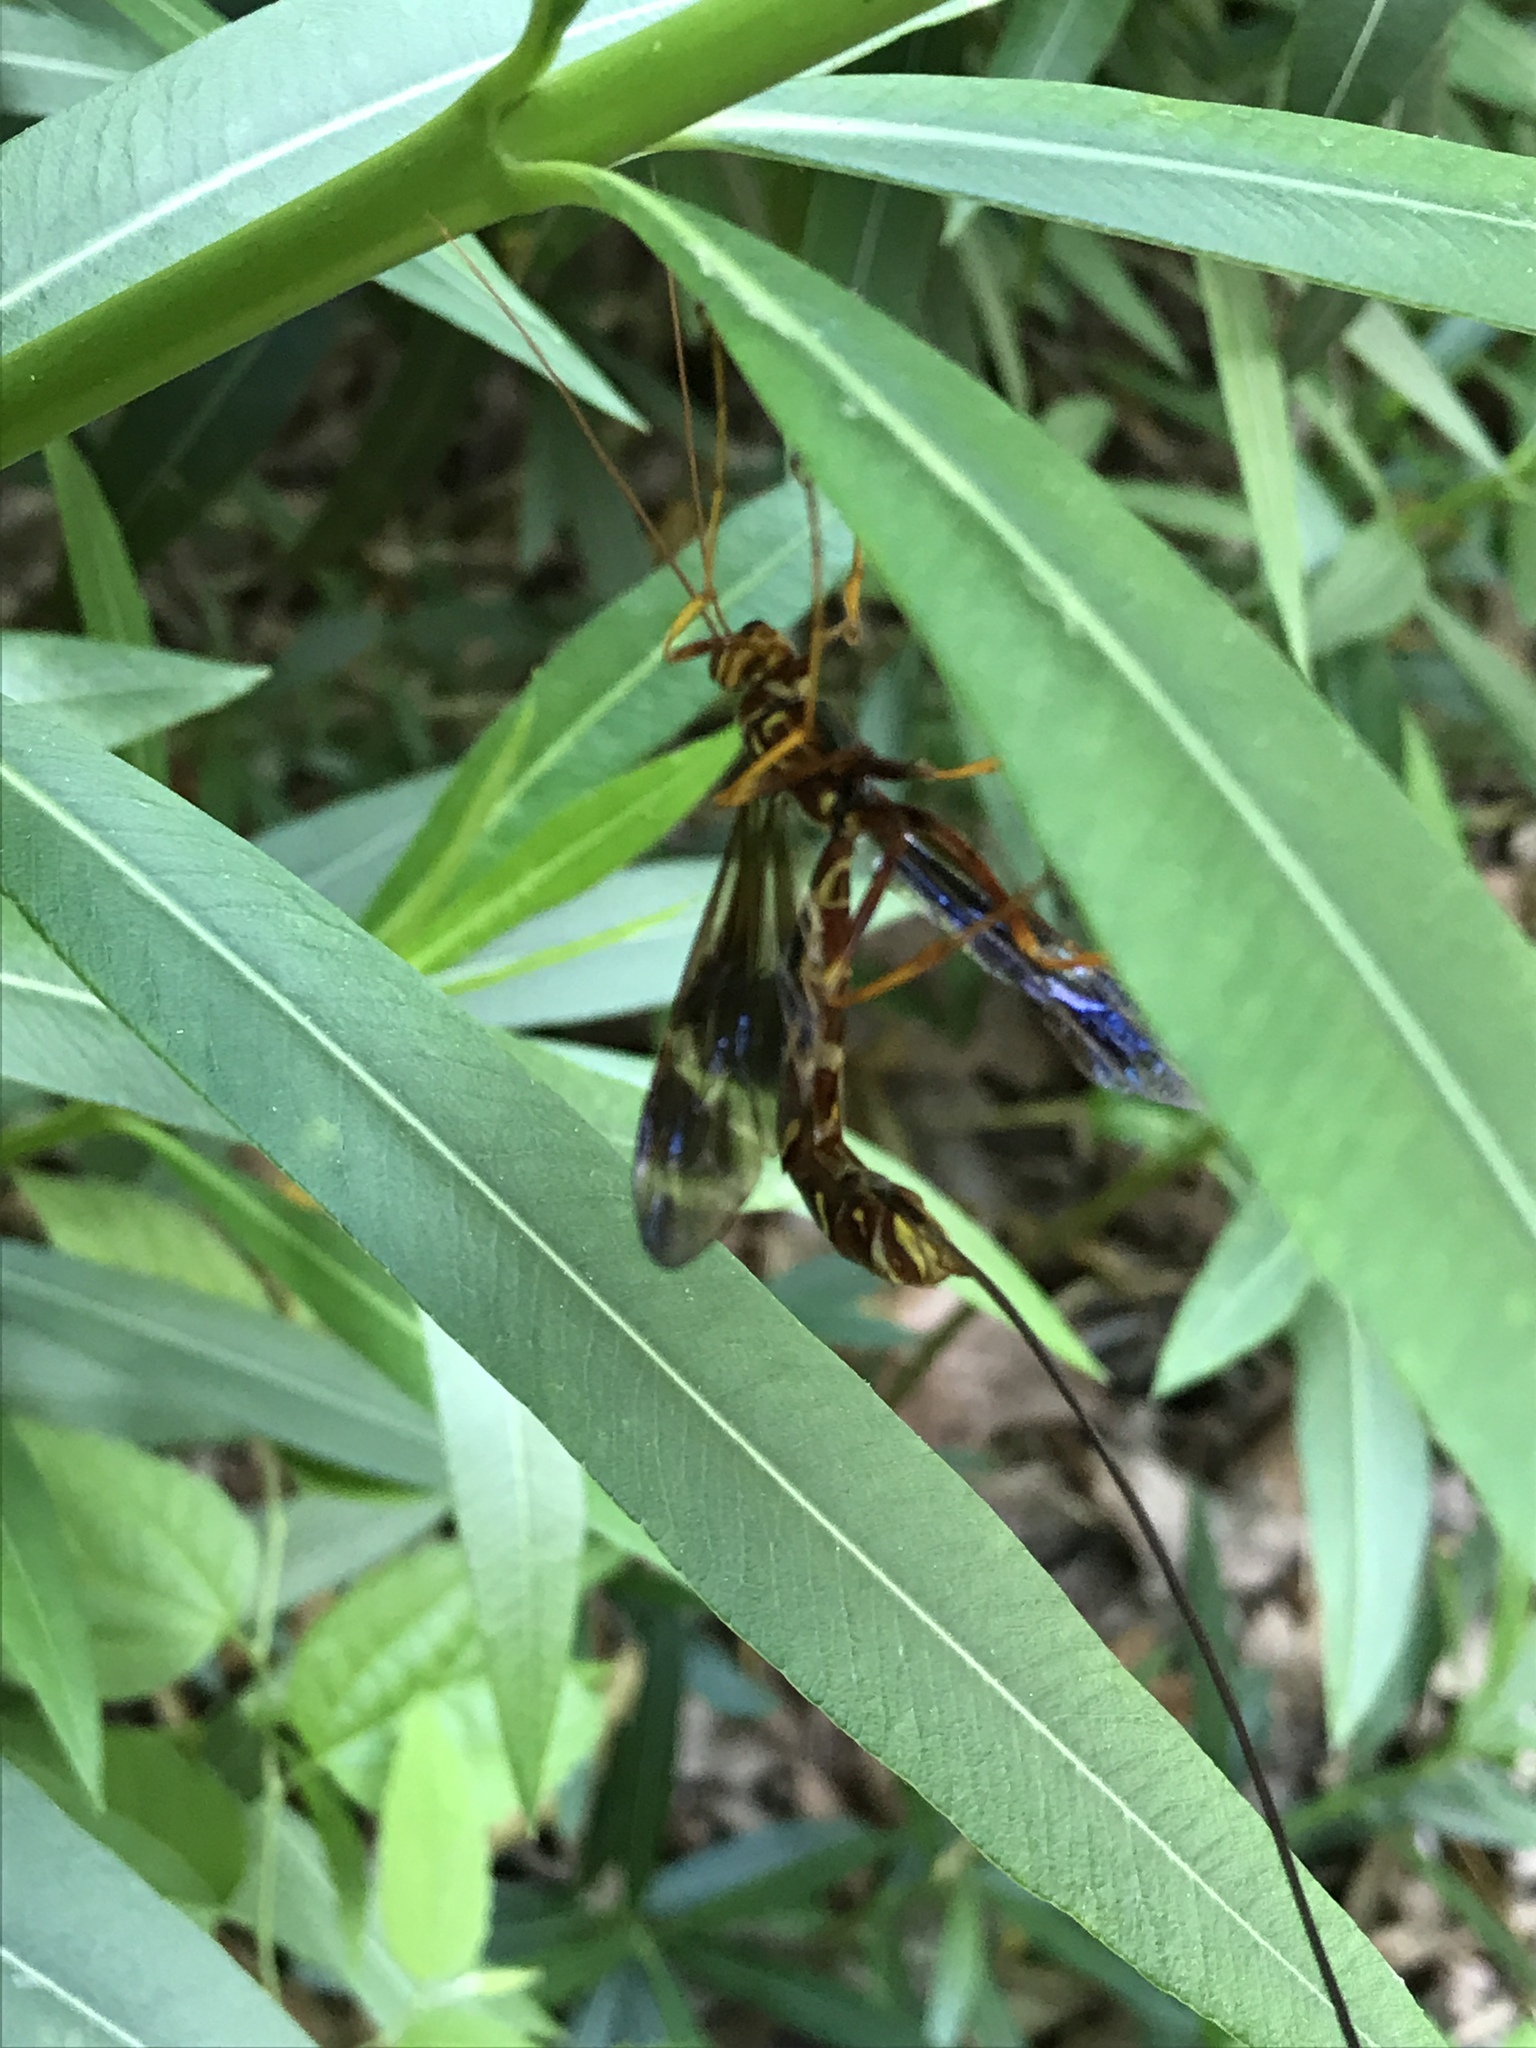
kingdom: Animalia
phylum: Arthropoda
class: Insecta
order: Hymenoptera
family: Ichneumonidae
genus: Megarhyssa
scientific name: Megarhyssa macrura
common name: Long-tailed giant ichneumonid wasp
